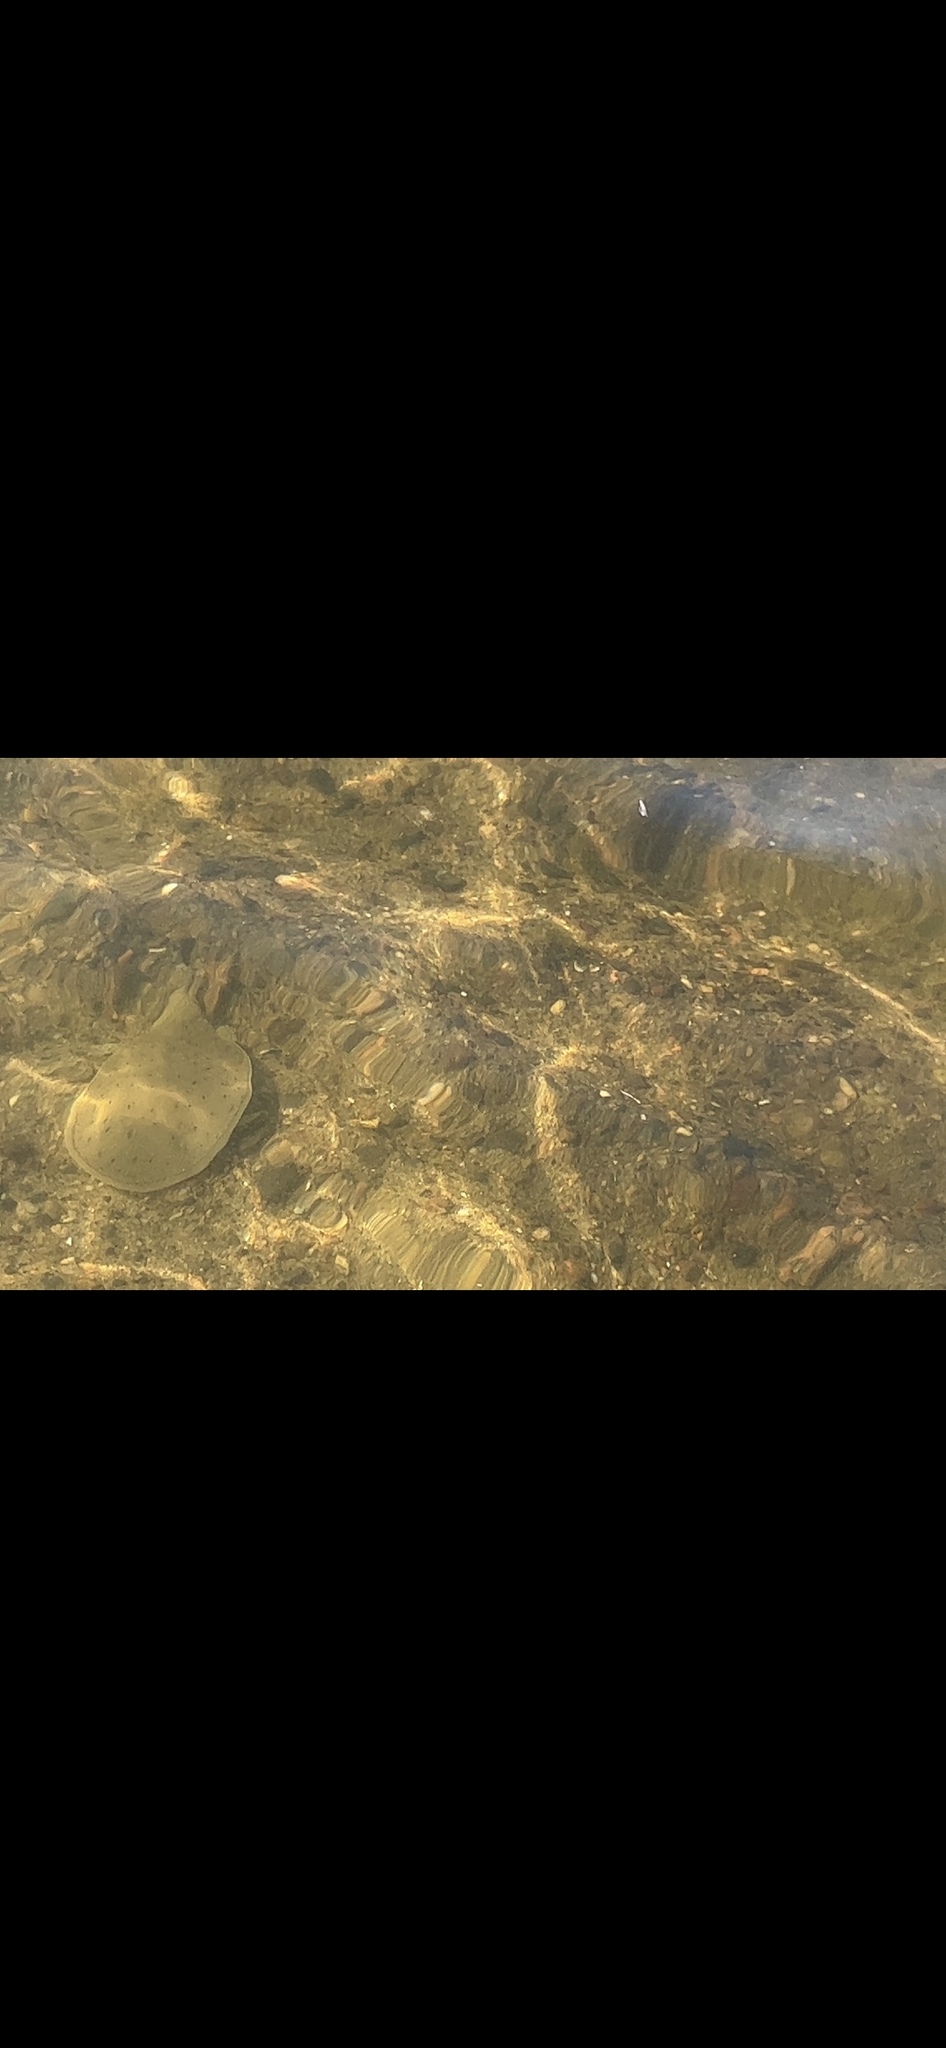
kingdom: Animalia
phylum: Chordata
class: Testudines
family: Trionychidae
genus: Apalone
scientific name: Apalone spinifera
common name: Spiny softshell turtle
